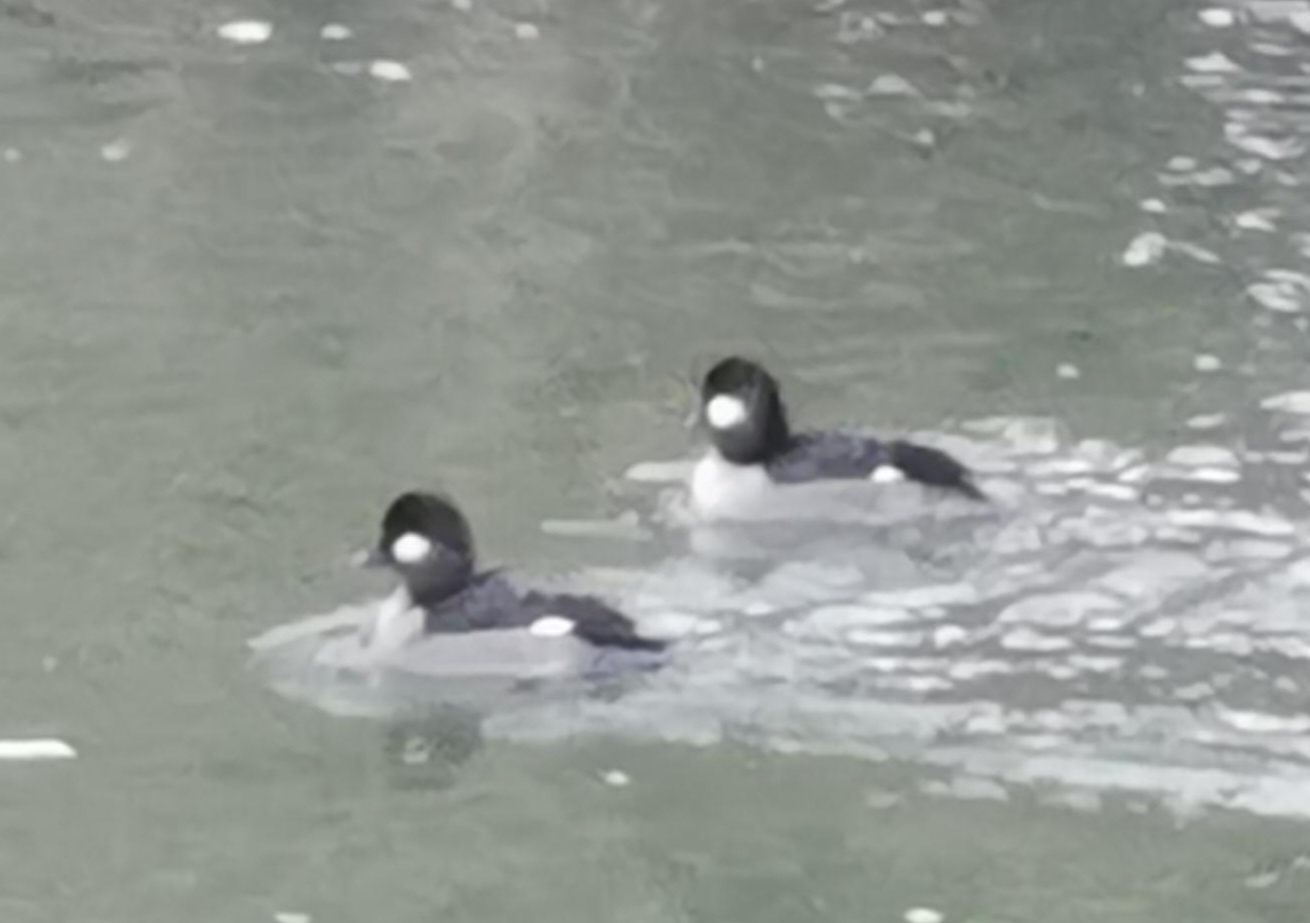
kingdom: Animalia
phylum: Chordata
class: Aves
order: Anseriformes
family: Anatidae
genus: Bucephala
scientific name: Bucephala albeola
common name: Bufflehead
